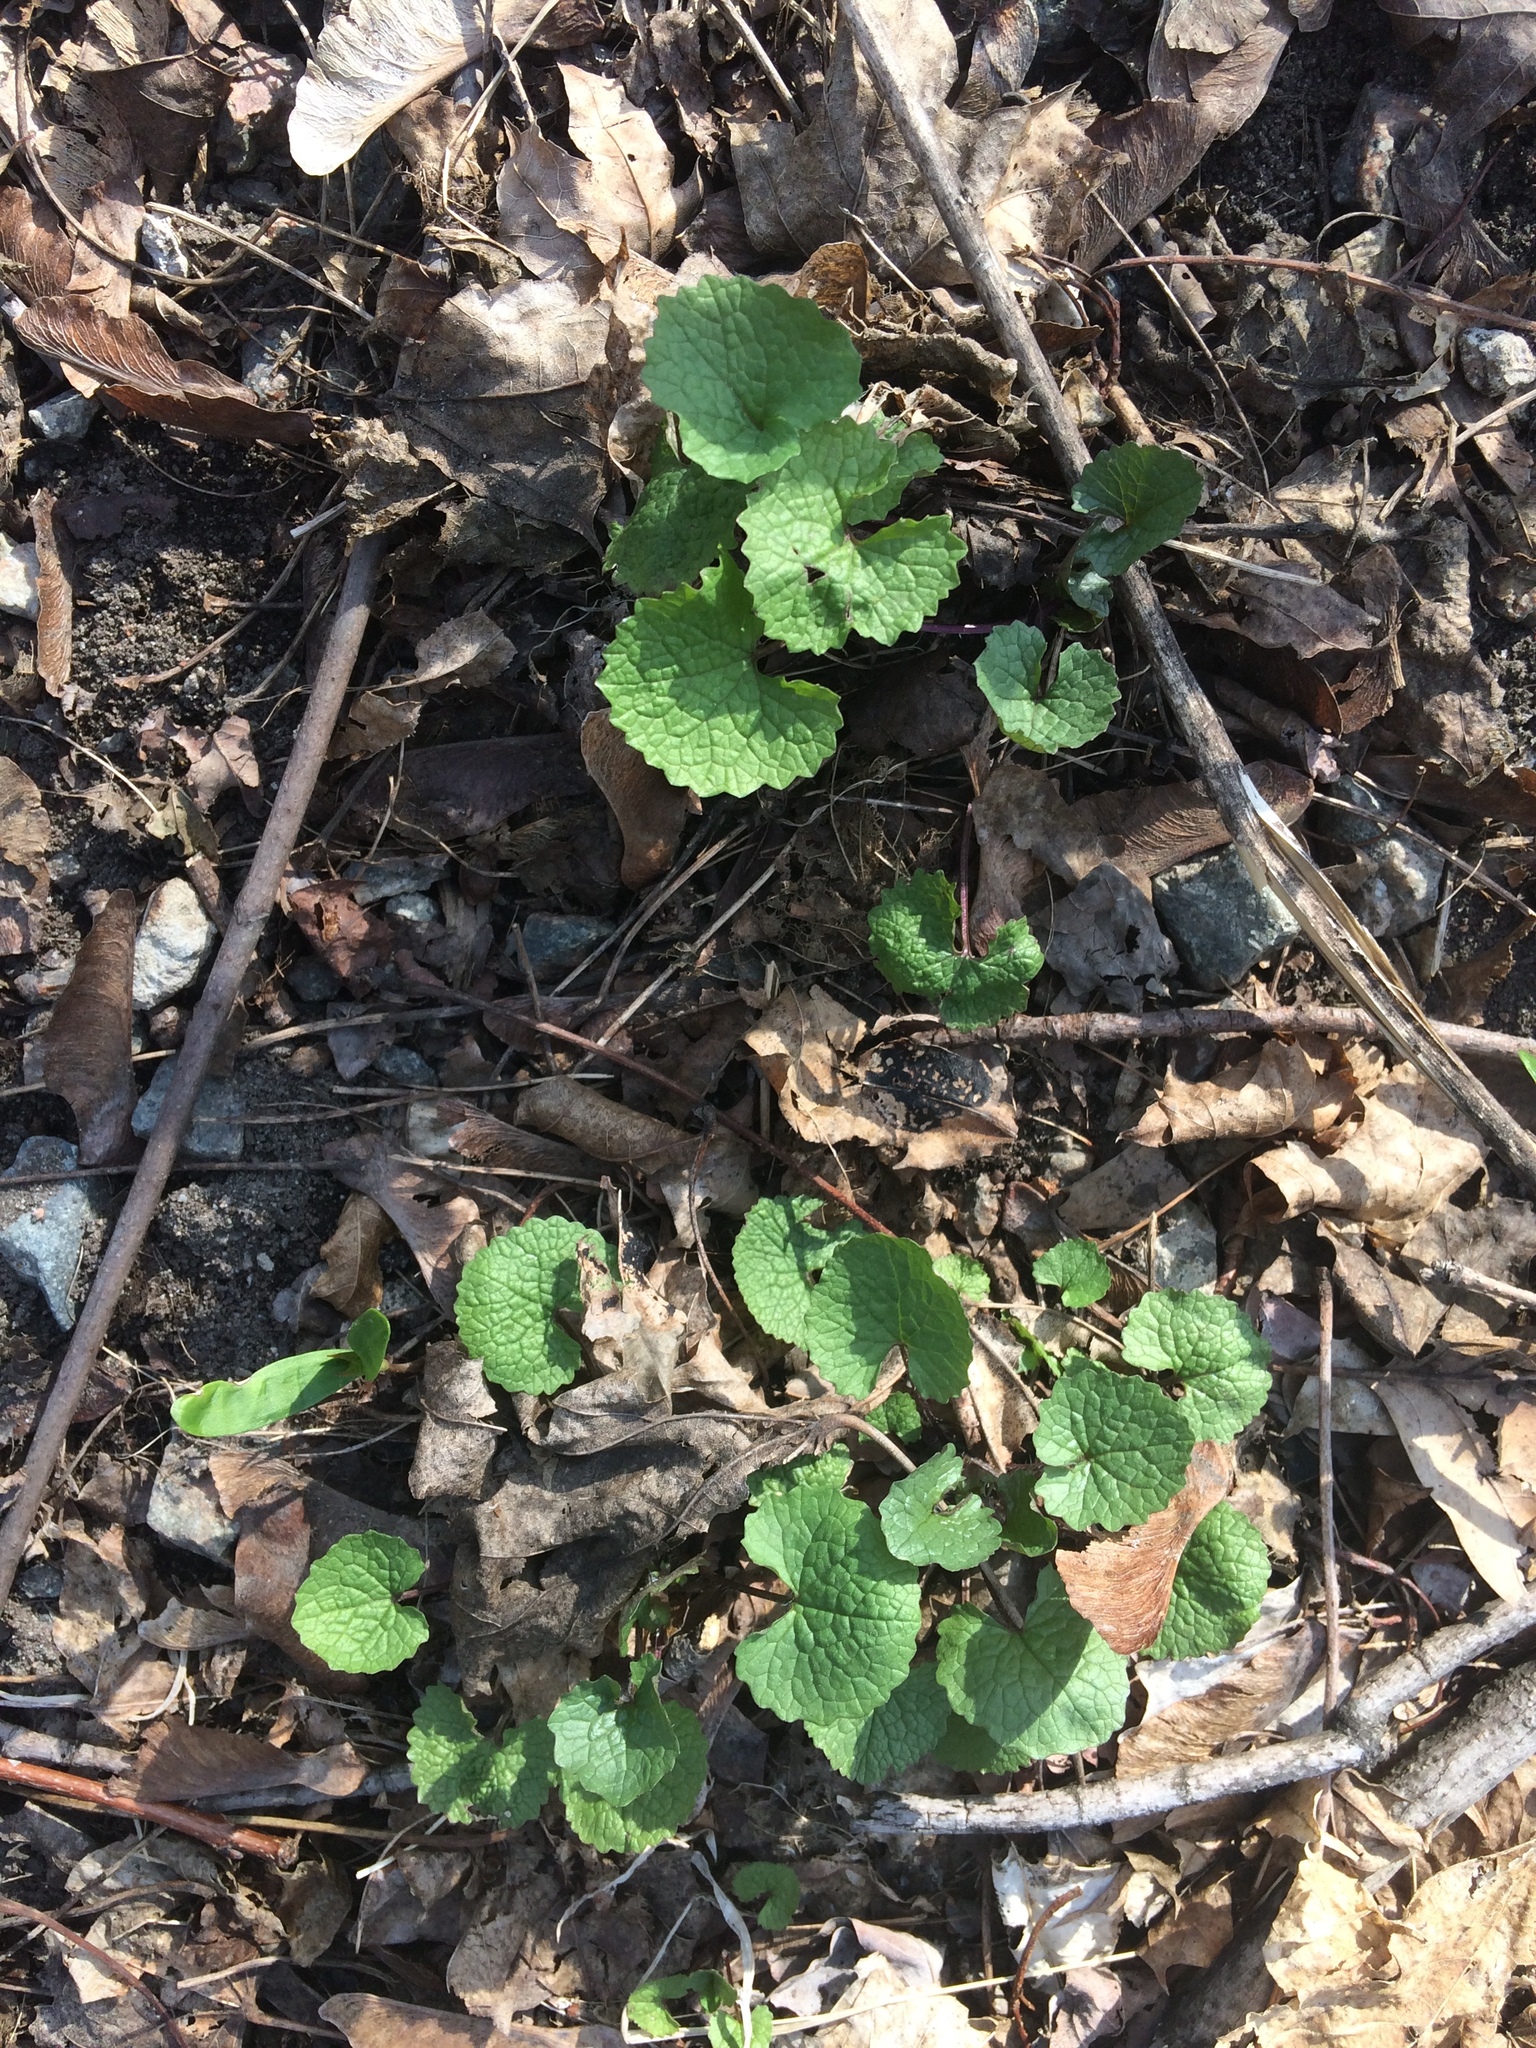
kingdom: Plantae
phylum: Tracheophyta
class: Magnoliopsida
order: Brassicales
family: Brassicaceae
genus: Alliaria
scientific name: Alliaria petiolata
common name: Garlic mustard
